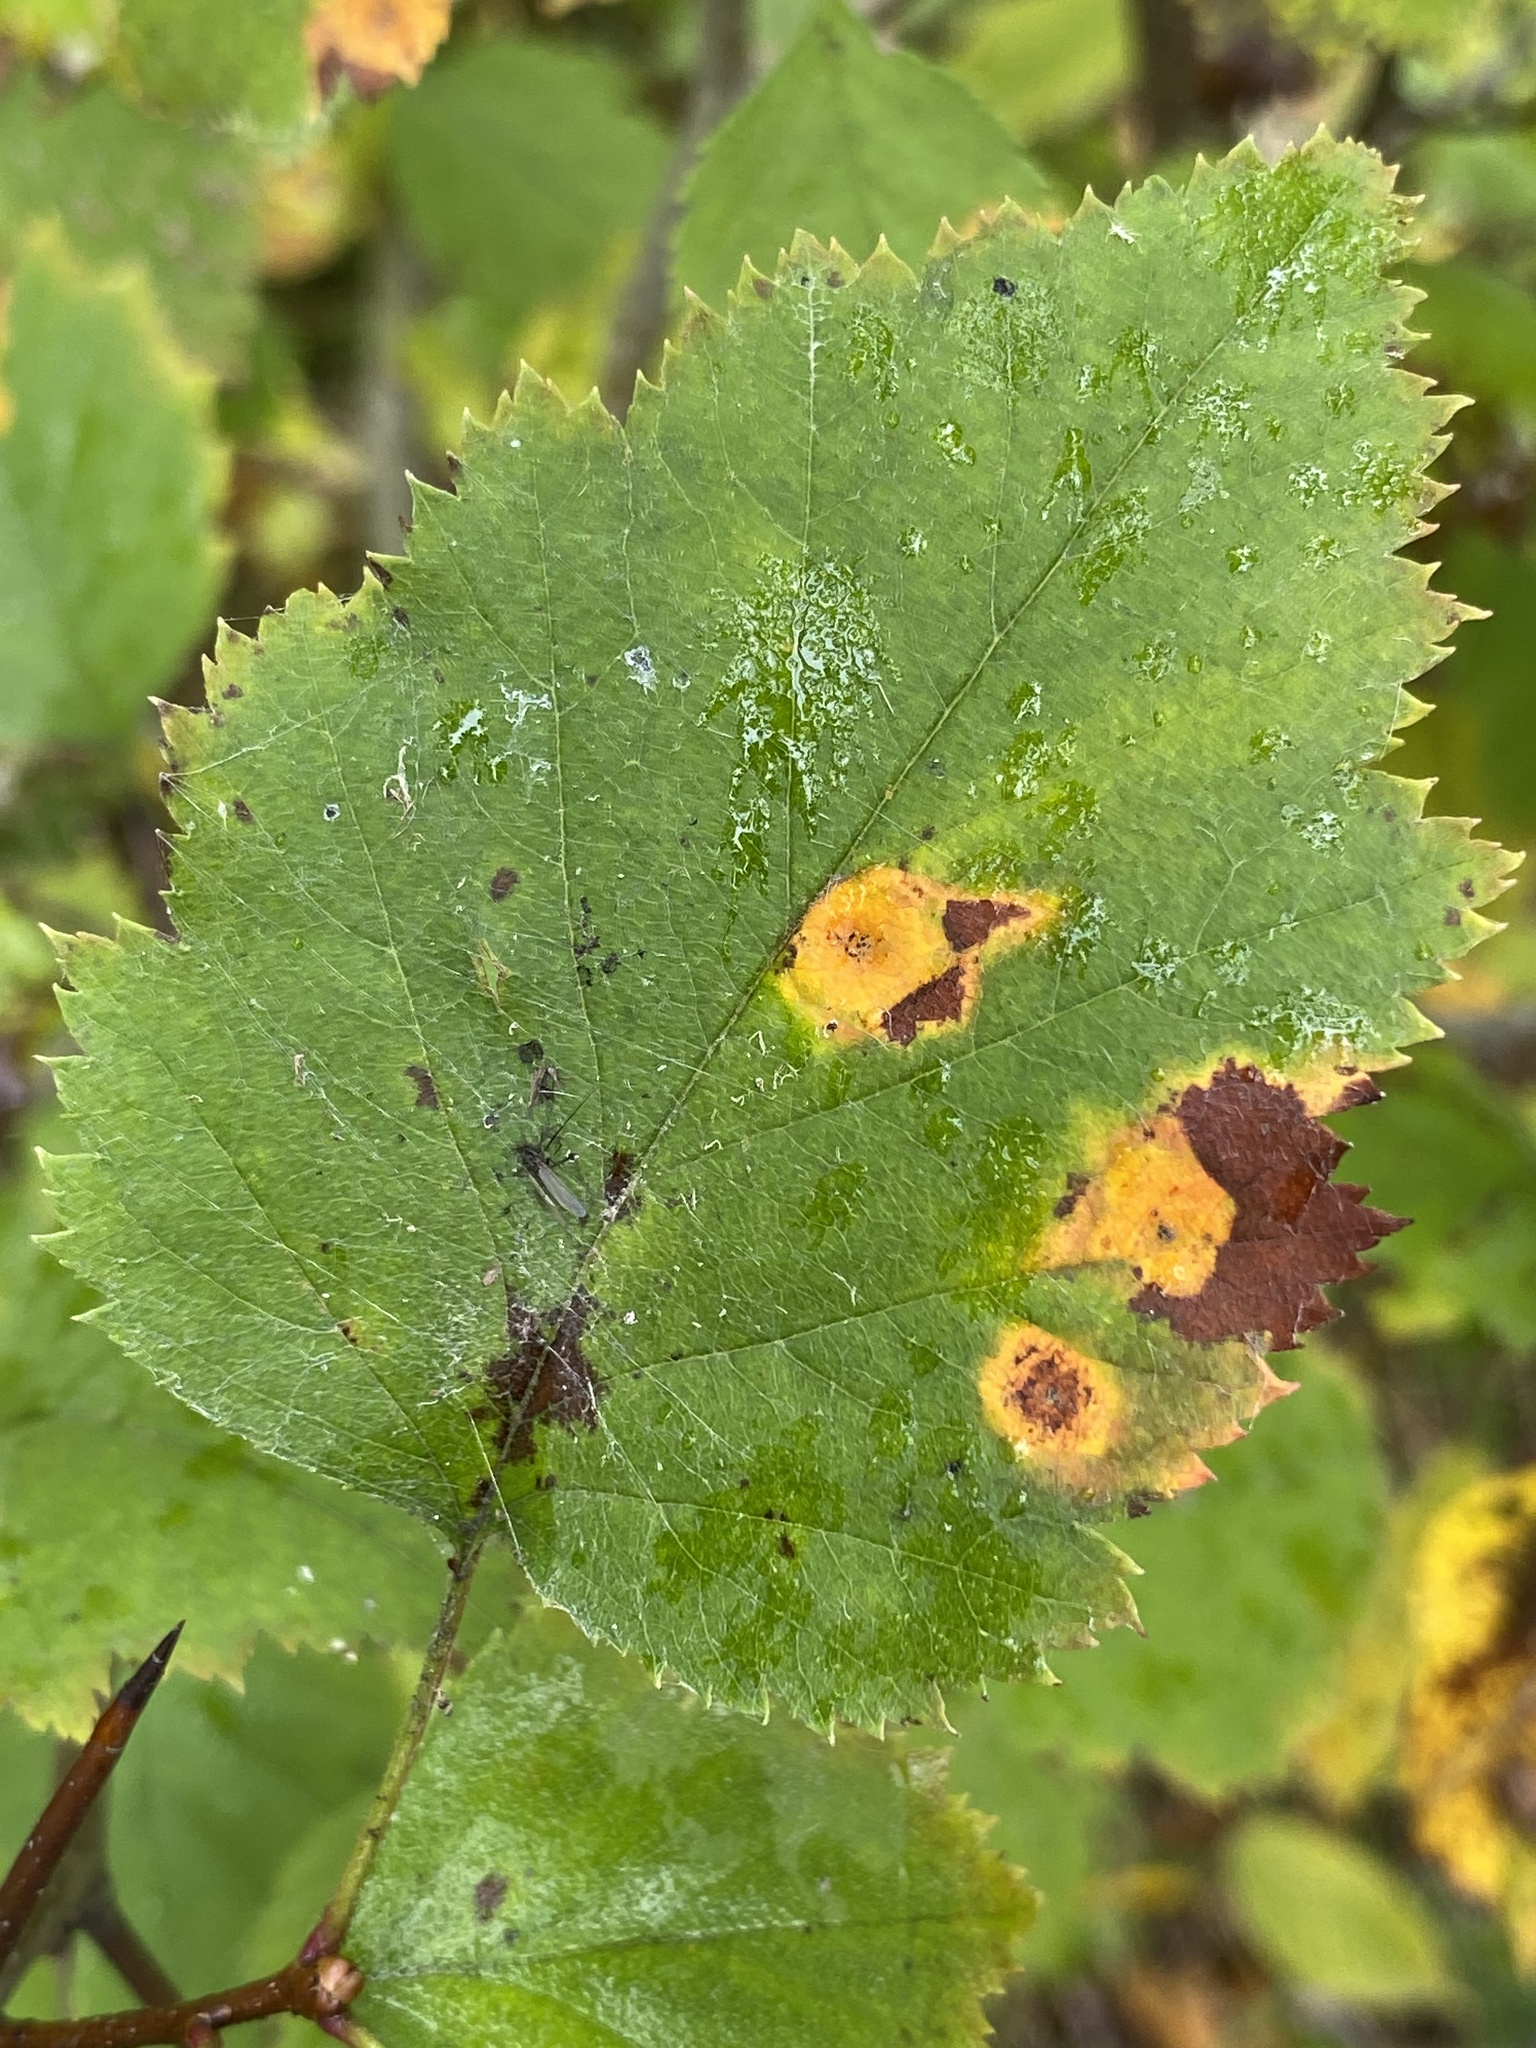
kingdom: Plantae
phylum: Tracheophyta
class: Magnoliopsida
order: Rosales
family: Rosaceae
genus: Crataegus
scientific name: Crataegus
